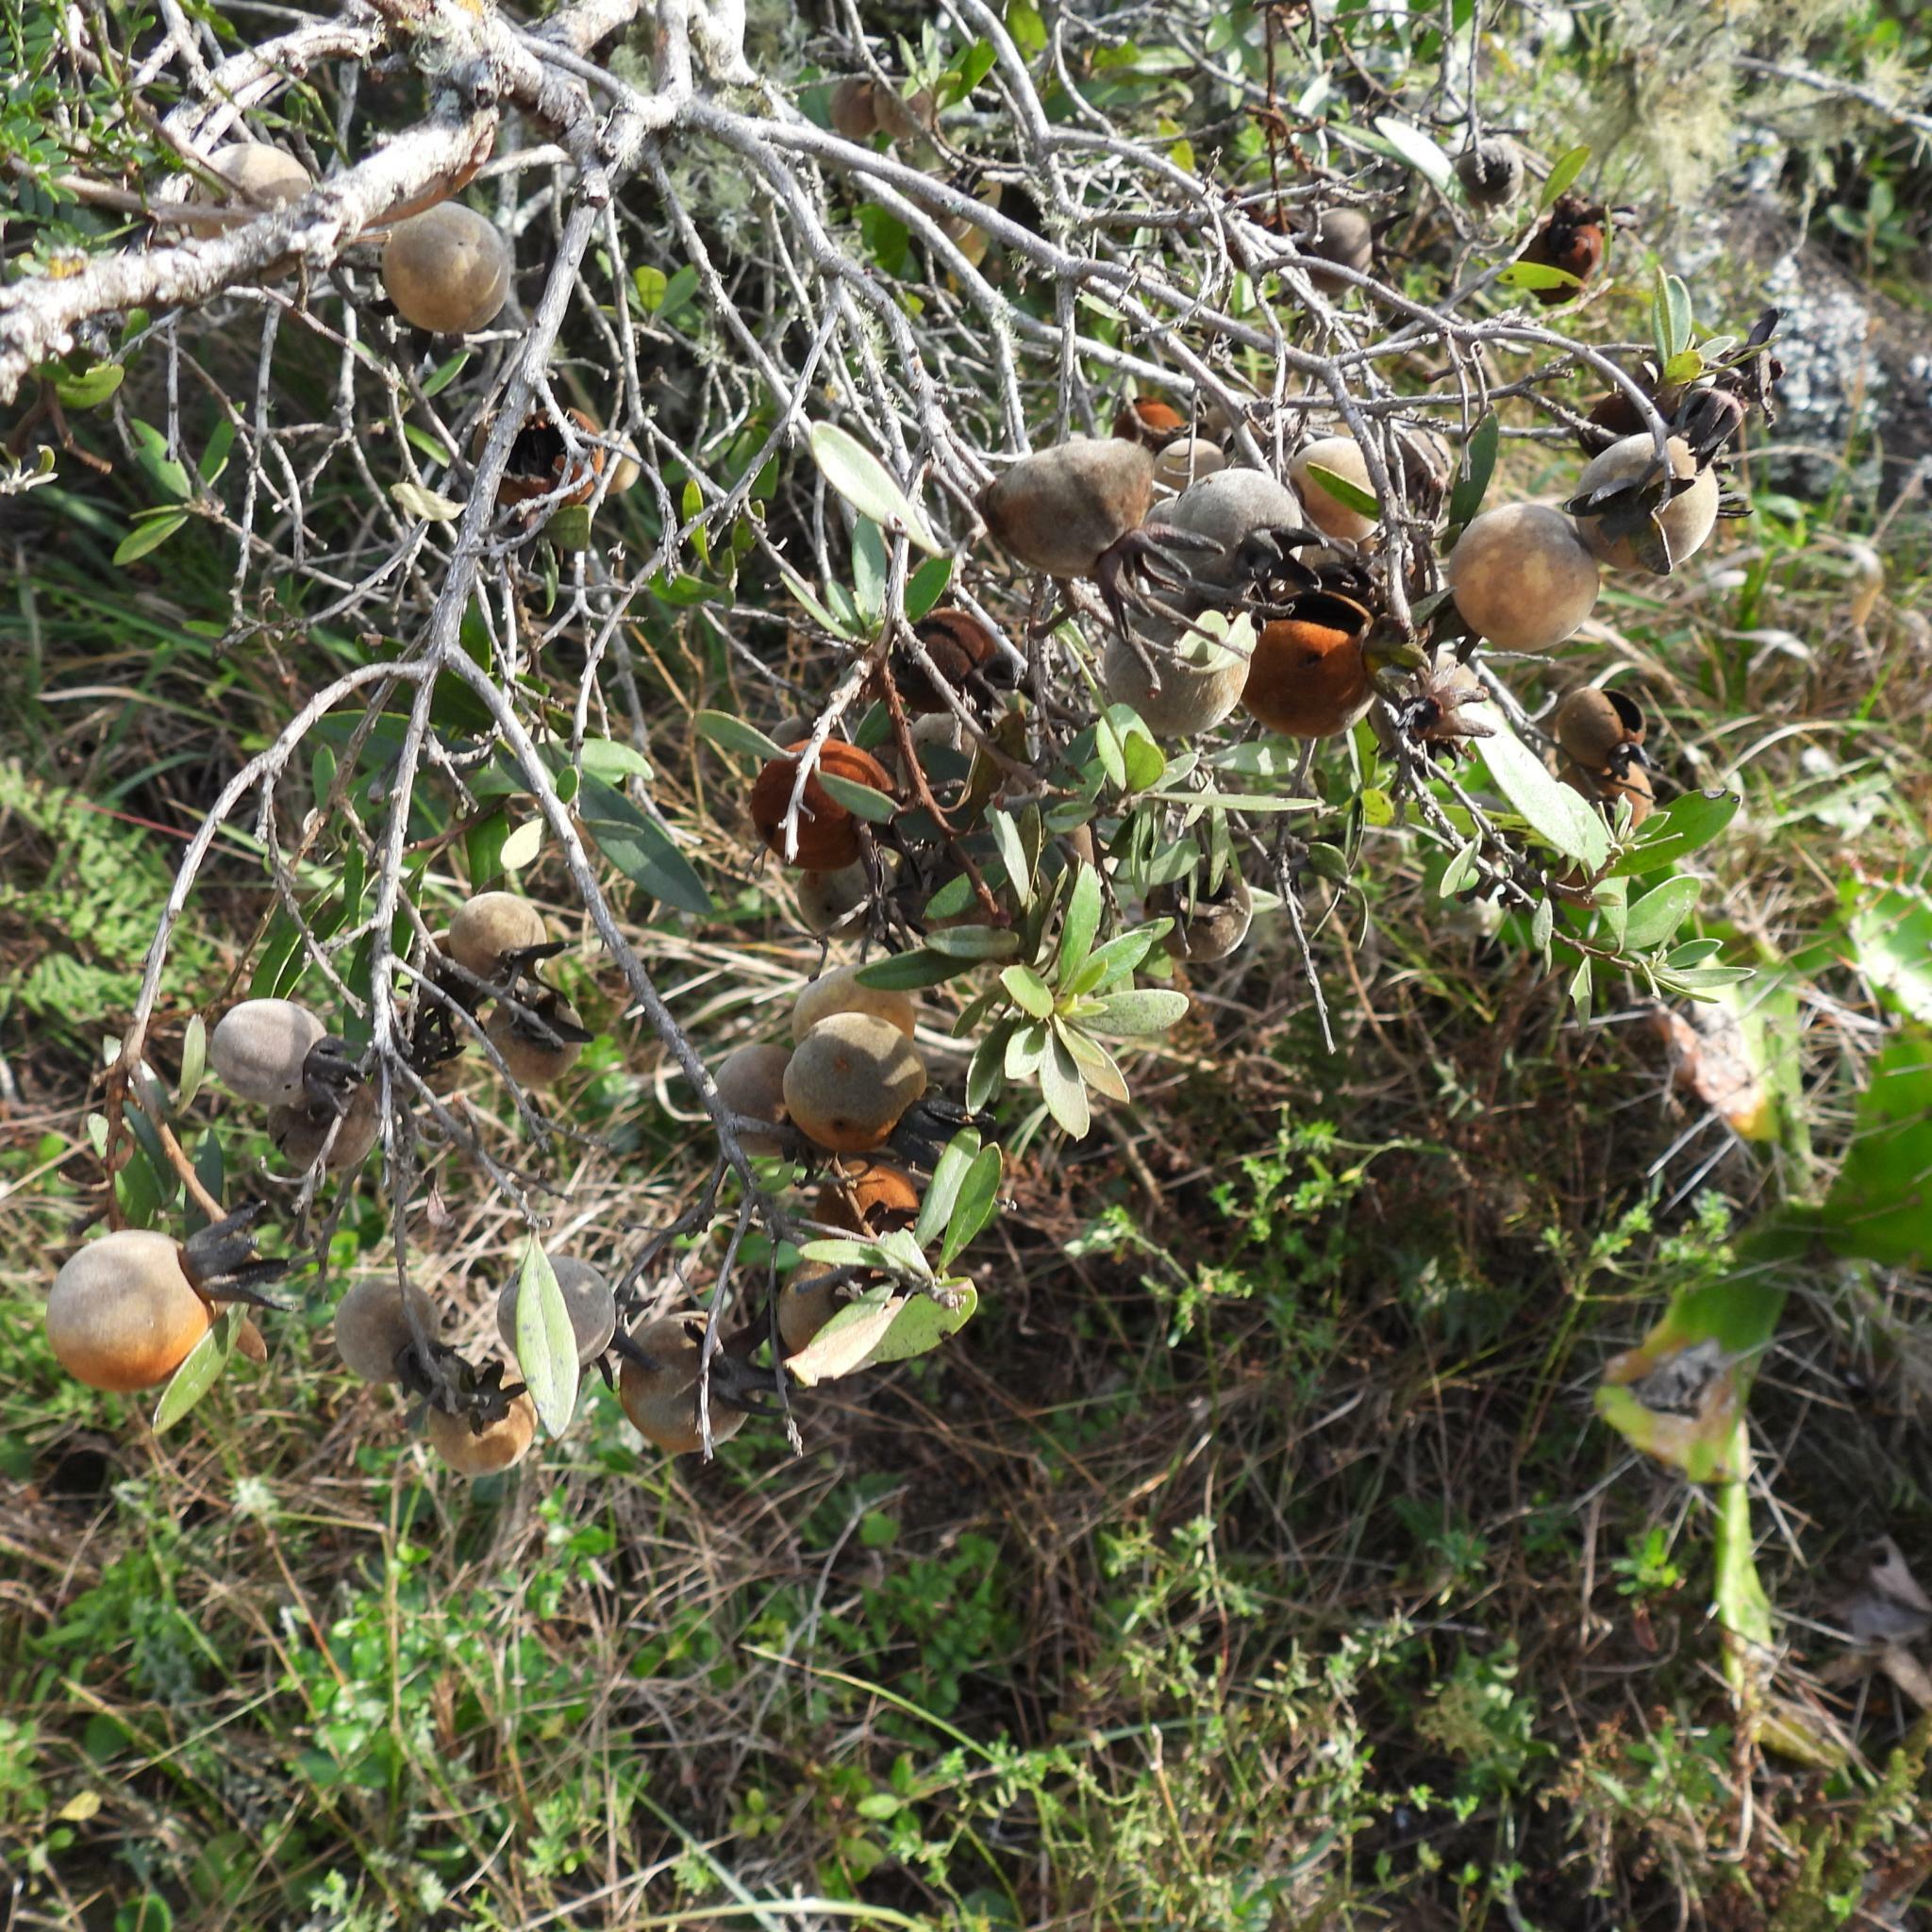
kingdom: Plantae
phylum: Tracheophyta
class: Magnoliopsida
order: Ericales
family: Ebenaceae
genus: Diospyros
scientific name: Diospyros dichrophylla
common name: Common star-apple
